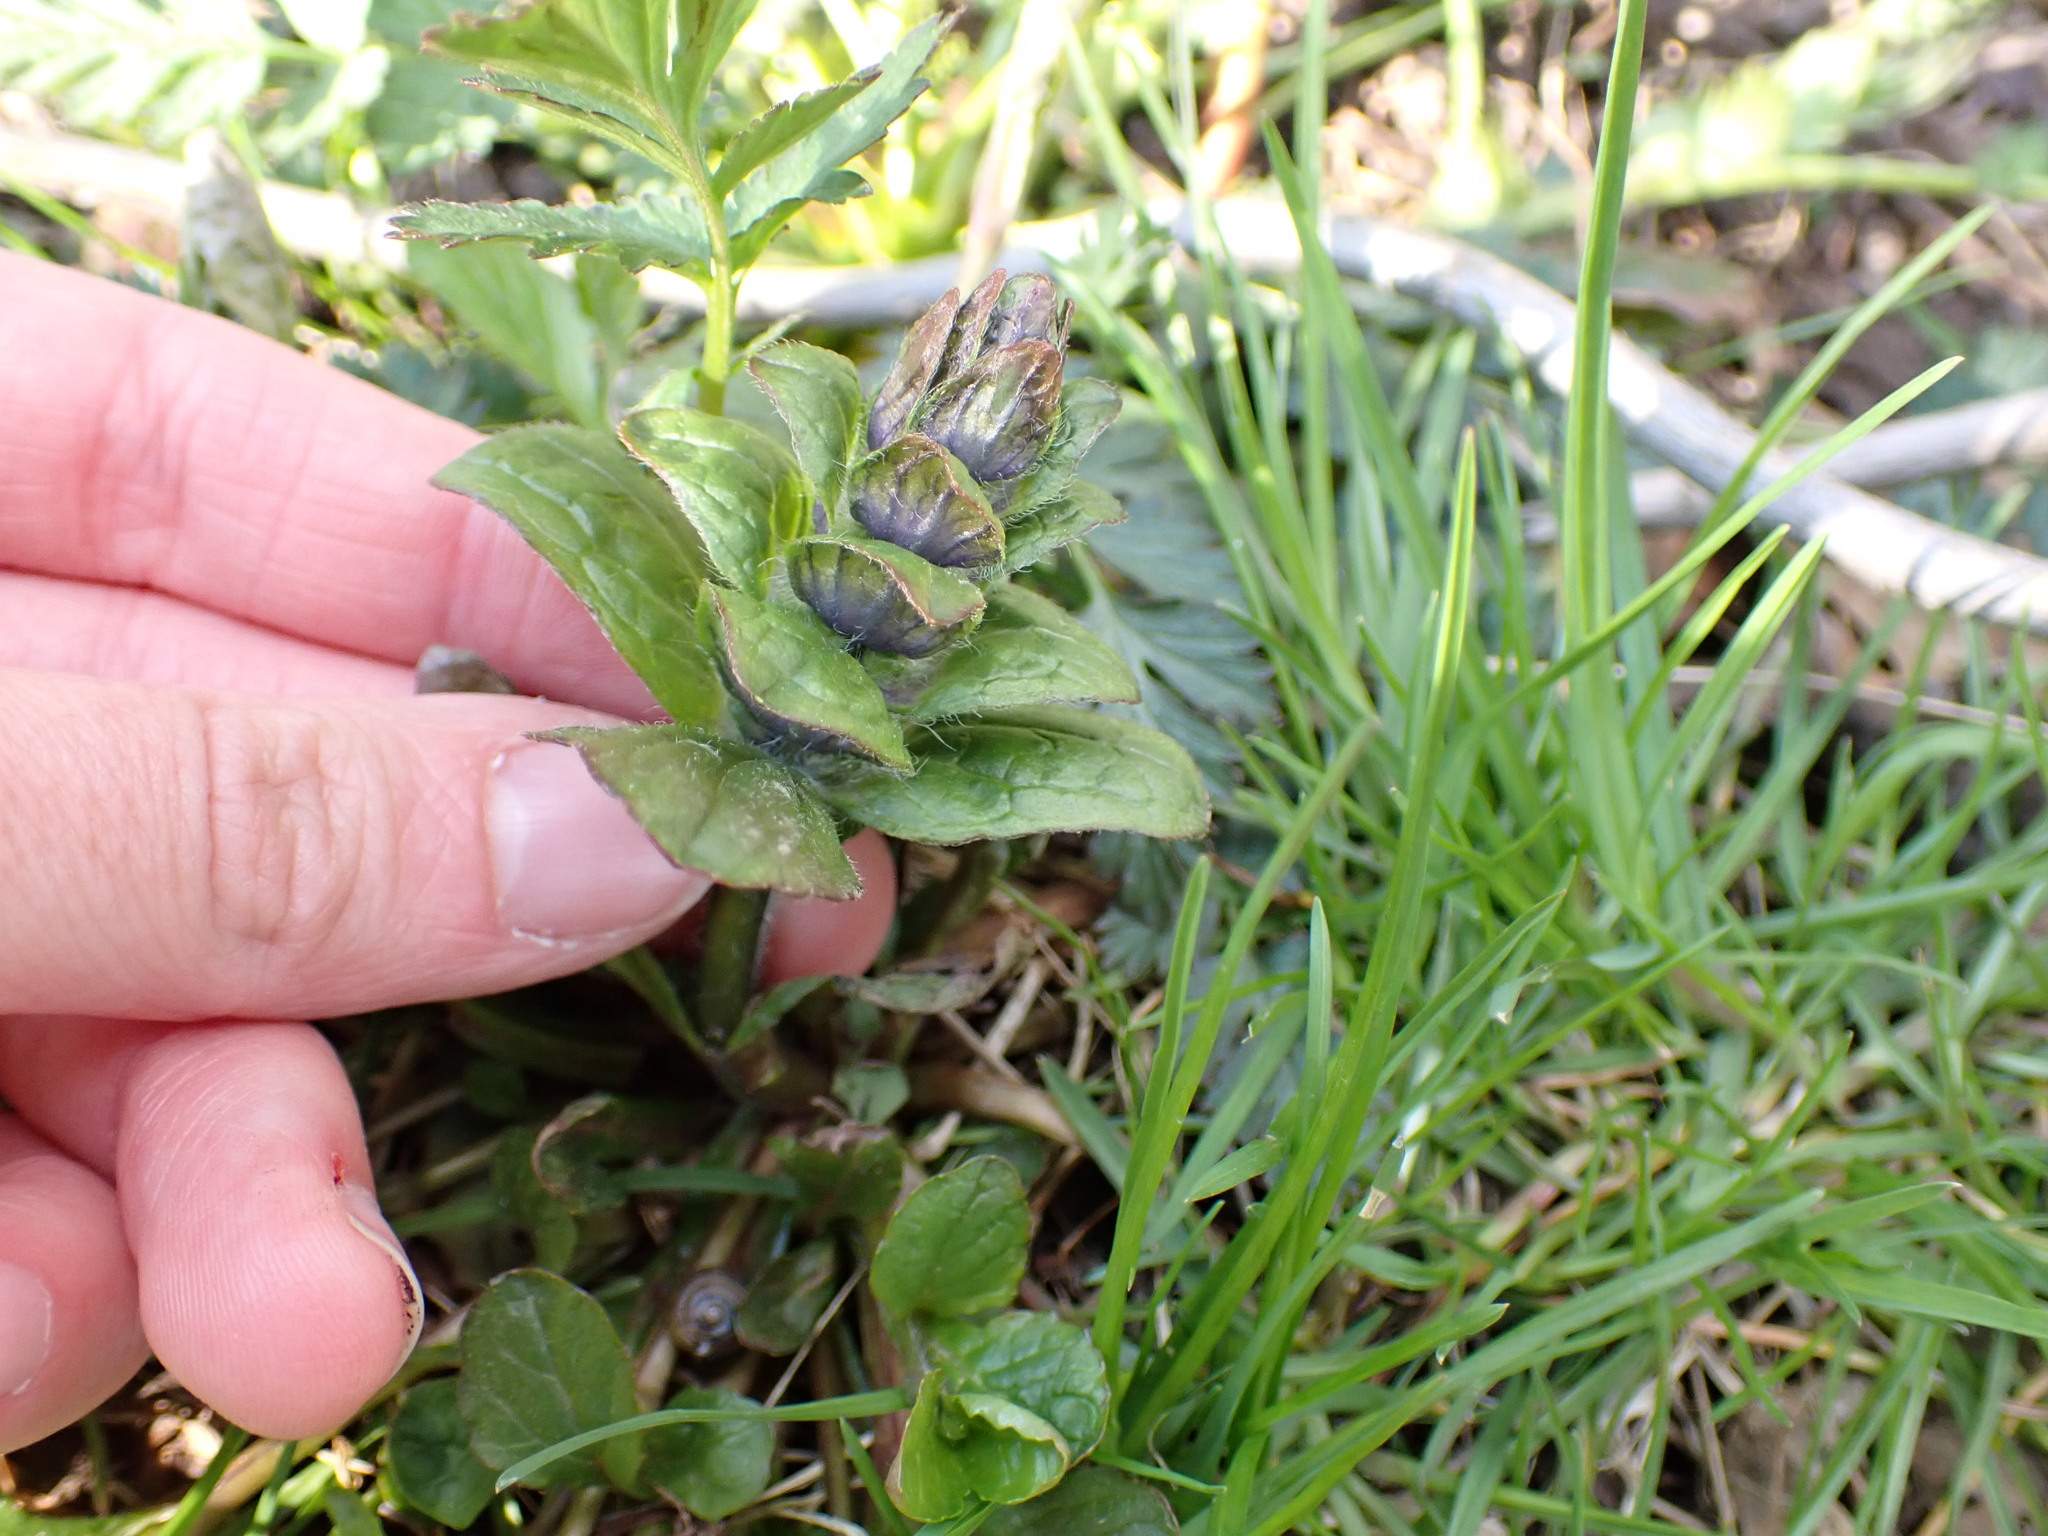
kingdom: Plantae
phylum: Tracheophyta
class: Magnoliopsida
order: Lamiales
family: Lamiaceae
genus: Ajuga
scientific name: Ajuga reptans
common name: Bugle
